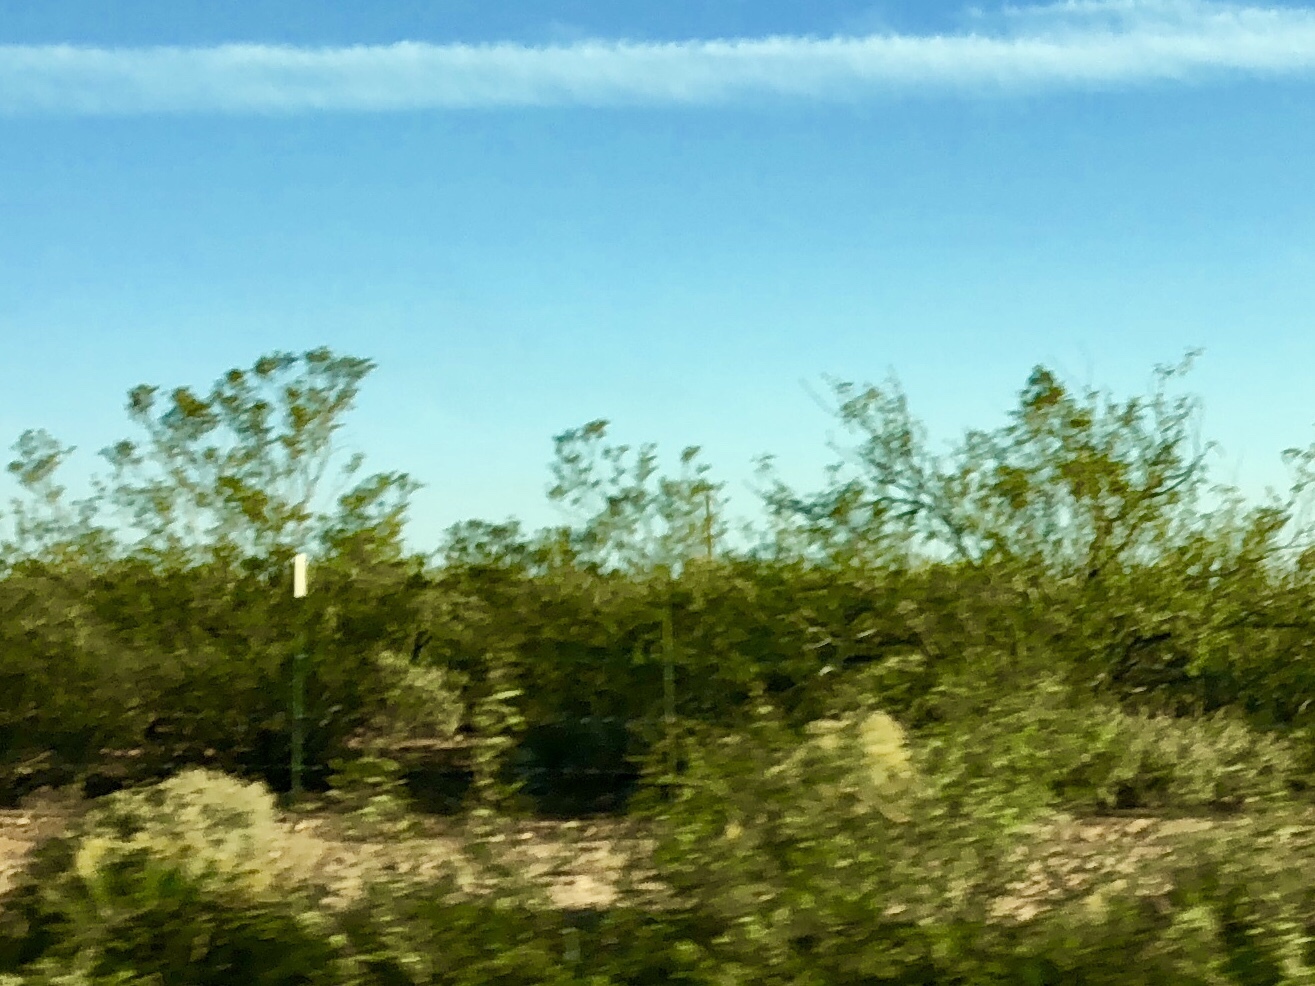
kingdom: Plantae
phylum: Tracheophyta
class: Magnoliopsida
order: Zygophyllales
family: Zygophyllaceae
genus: Larrea
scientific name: Larrea tridentata
